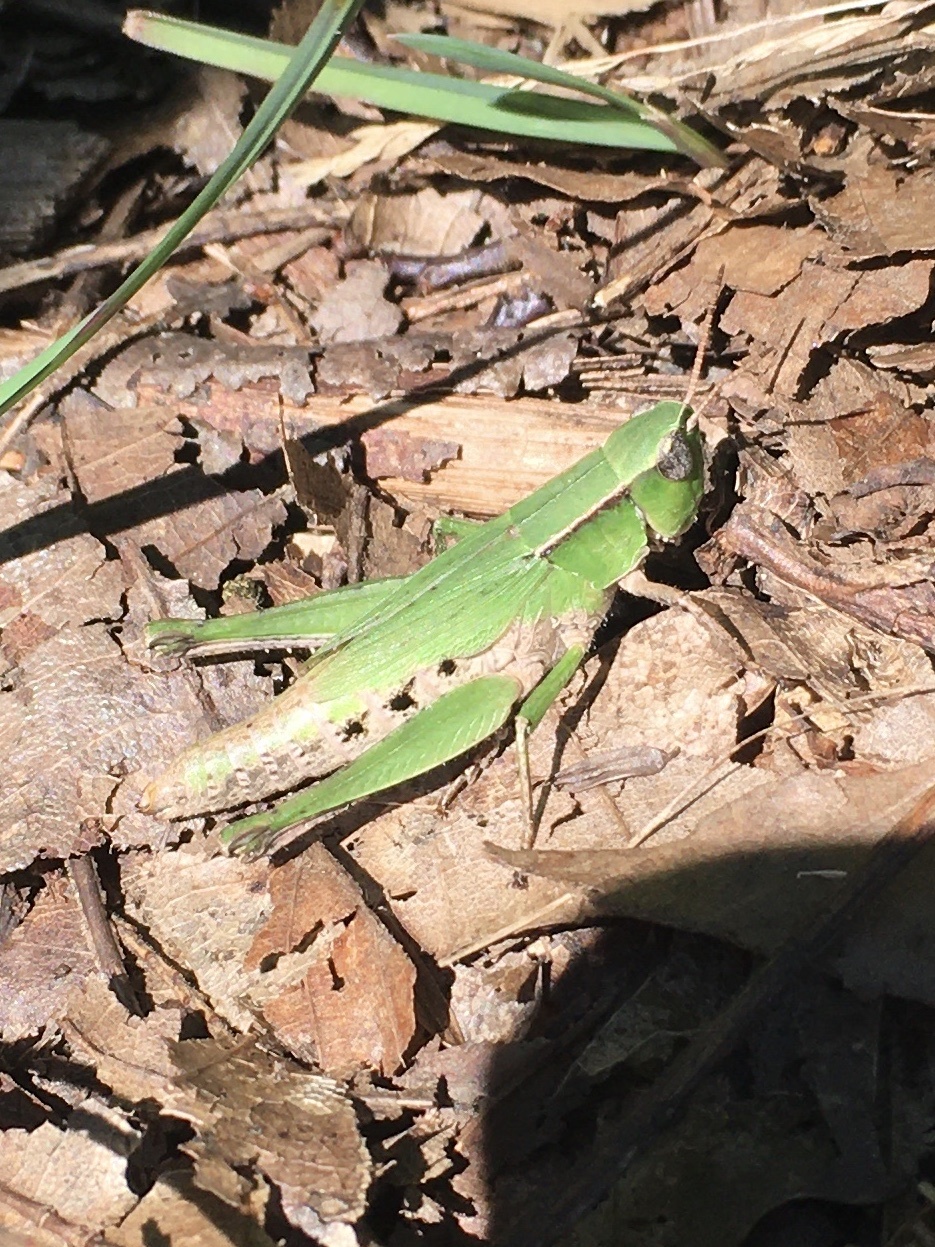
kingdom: Animalia
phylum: Arthropoda
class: Insecta
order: Orthoptera
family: Acrididae
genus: Dichromorpha
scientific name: Dichromorpha viridis
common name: Short-winged green grasshopper
